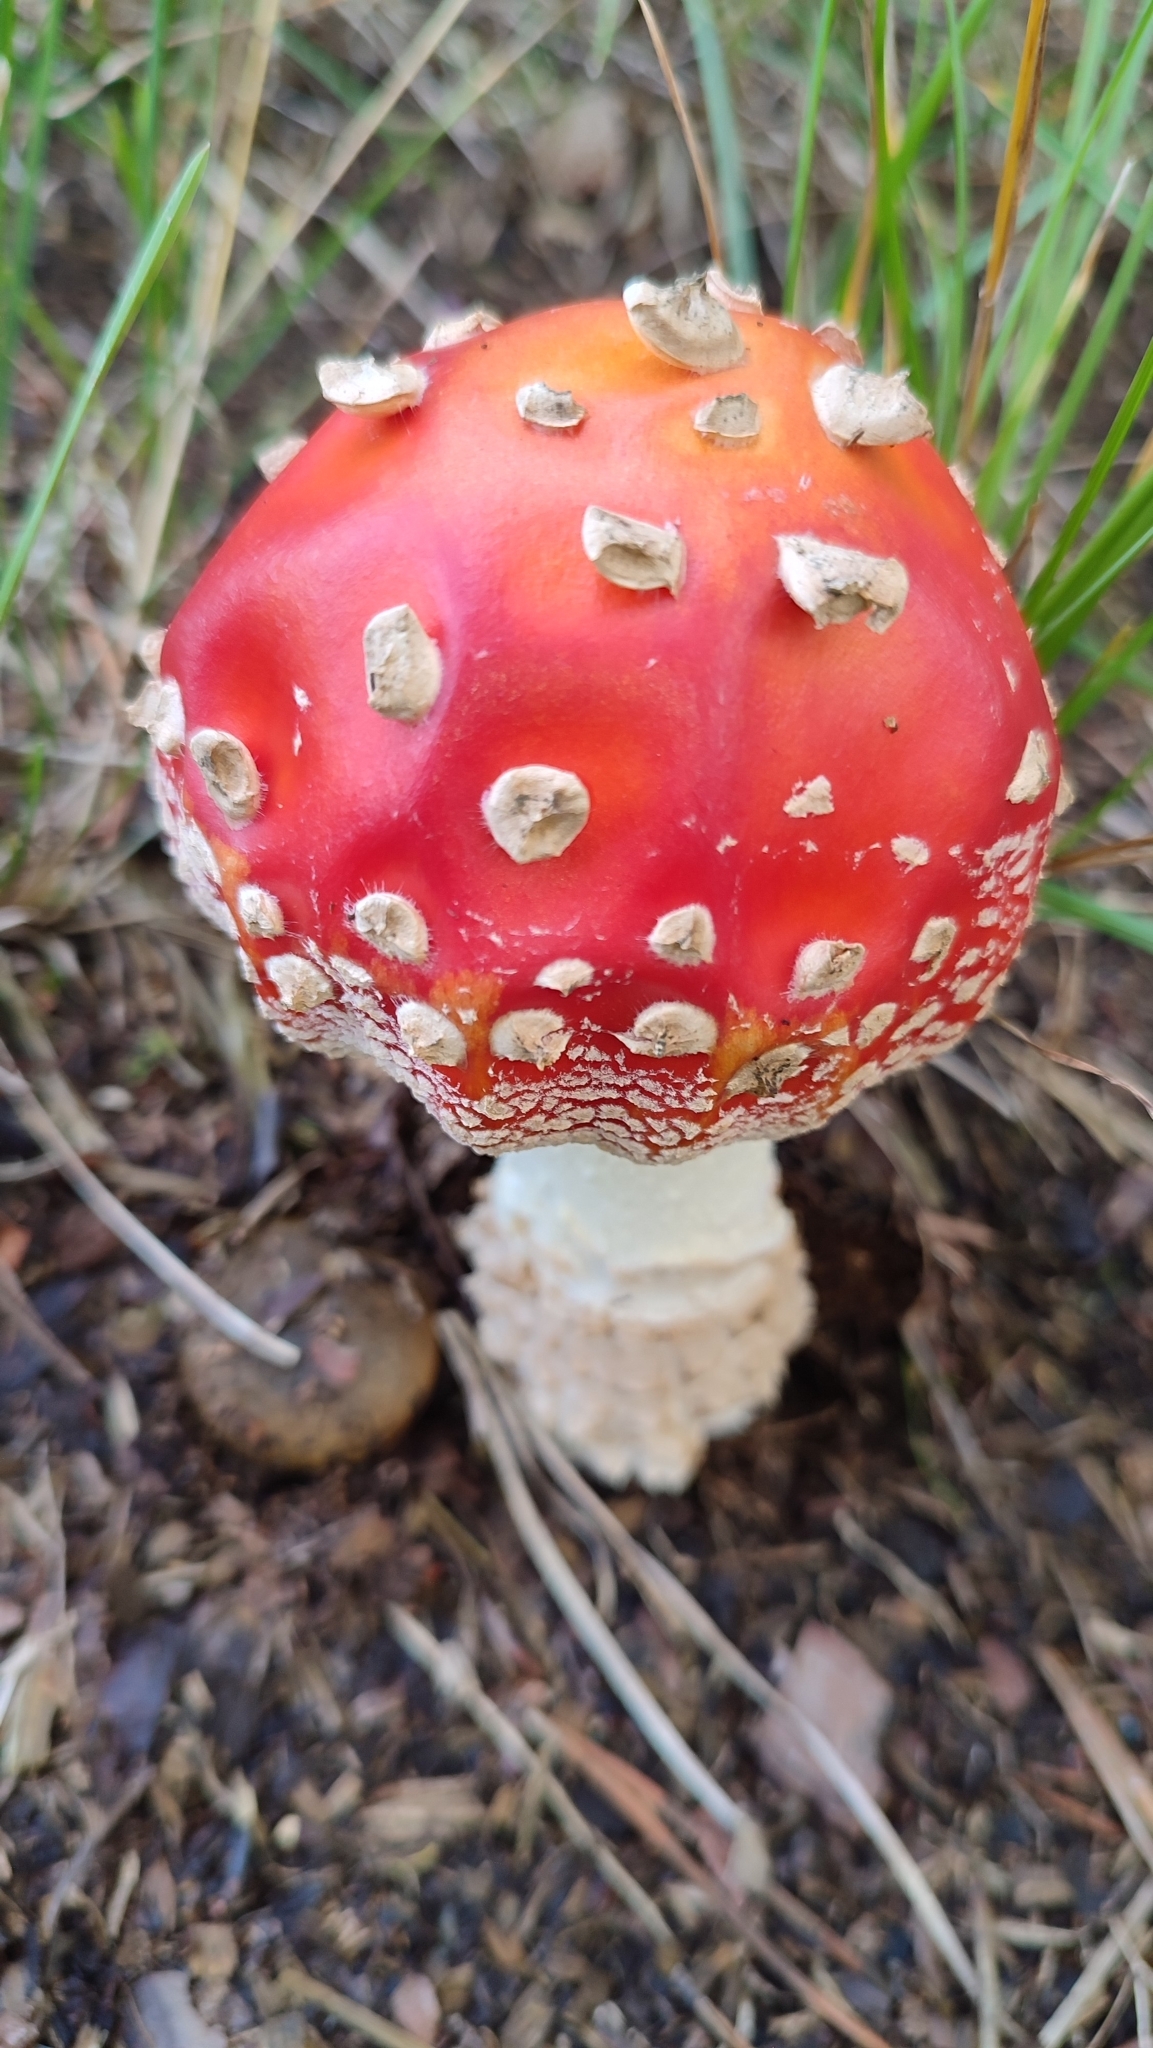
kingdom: Fungi
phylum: Basidiomycota
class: Agaricomycetes
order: Agaricales
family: Amanitaceae
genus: Amanita
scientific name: Amanita muscaria
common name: Fly agaric
